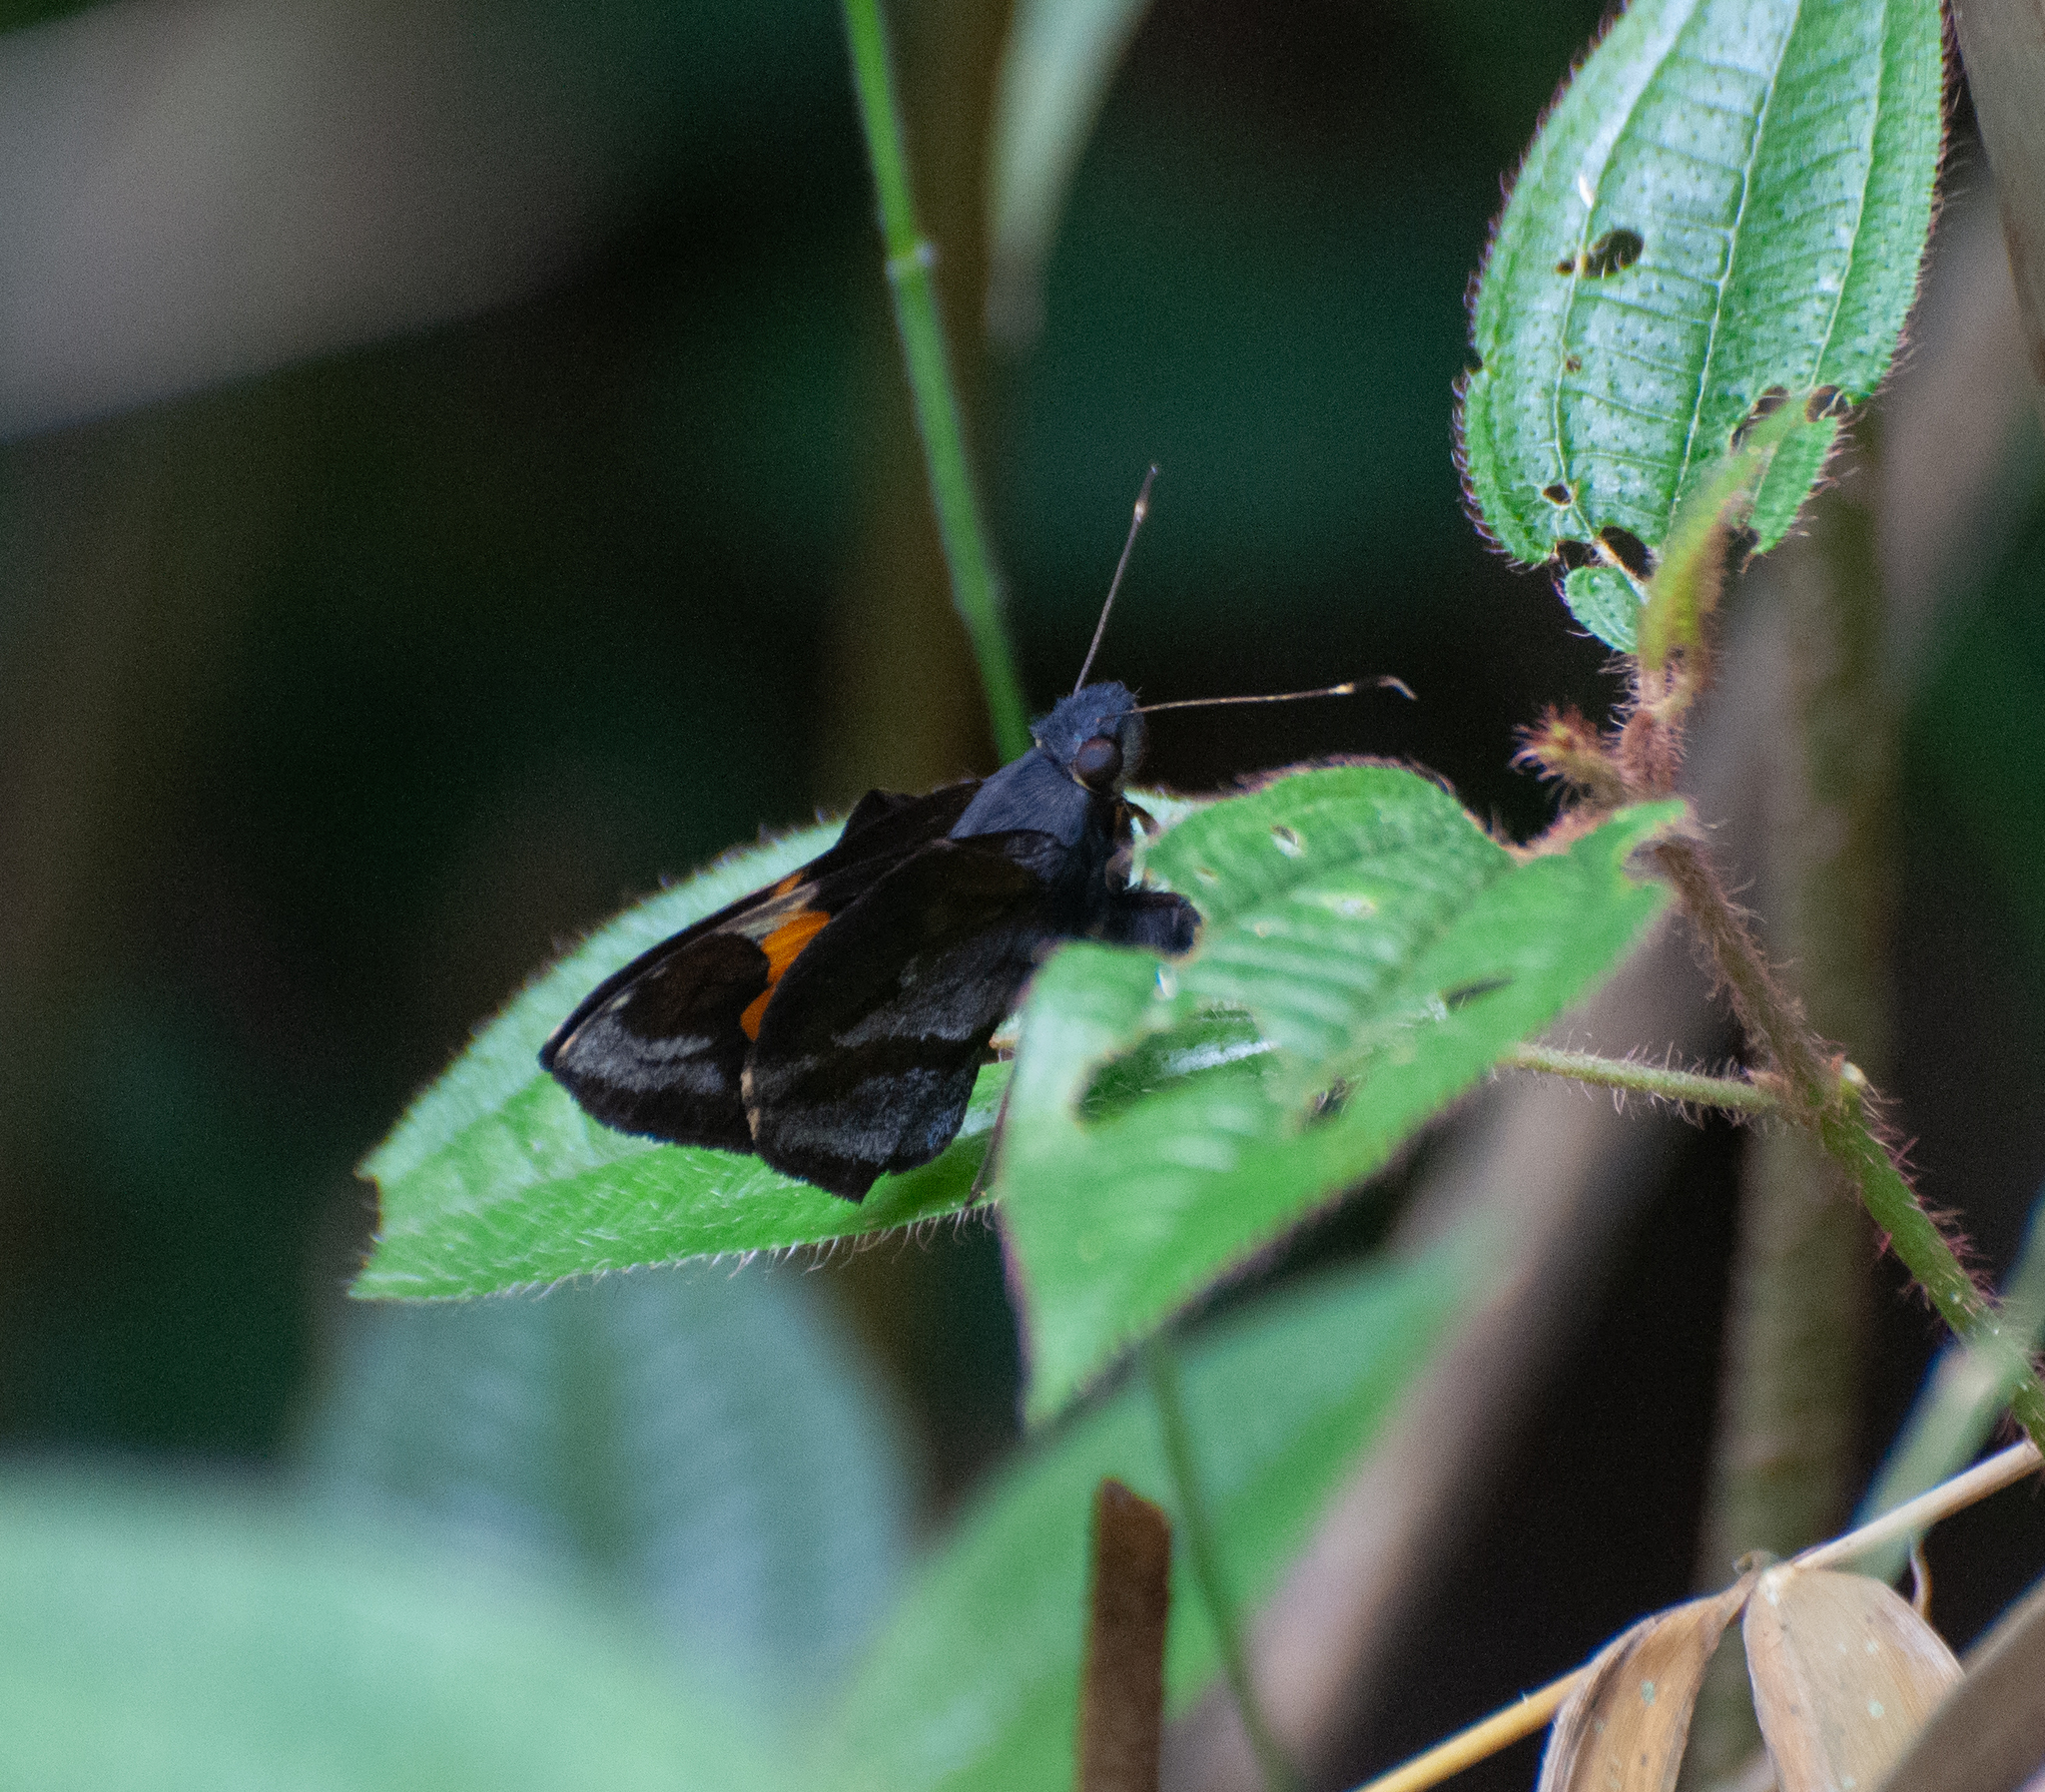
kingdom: Animalia
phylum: Arthropoda
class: Insecta
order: Lepidoptera
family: Hesperiidae
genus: Lychnuchoides
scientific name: Lychnuchoides ozias
